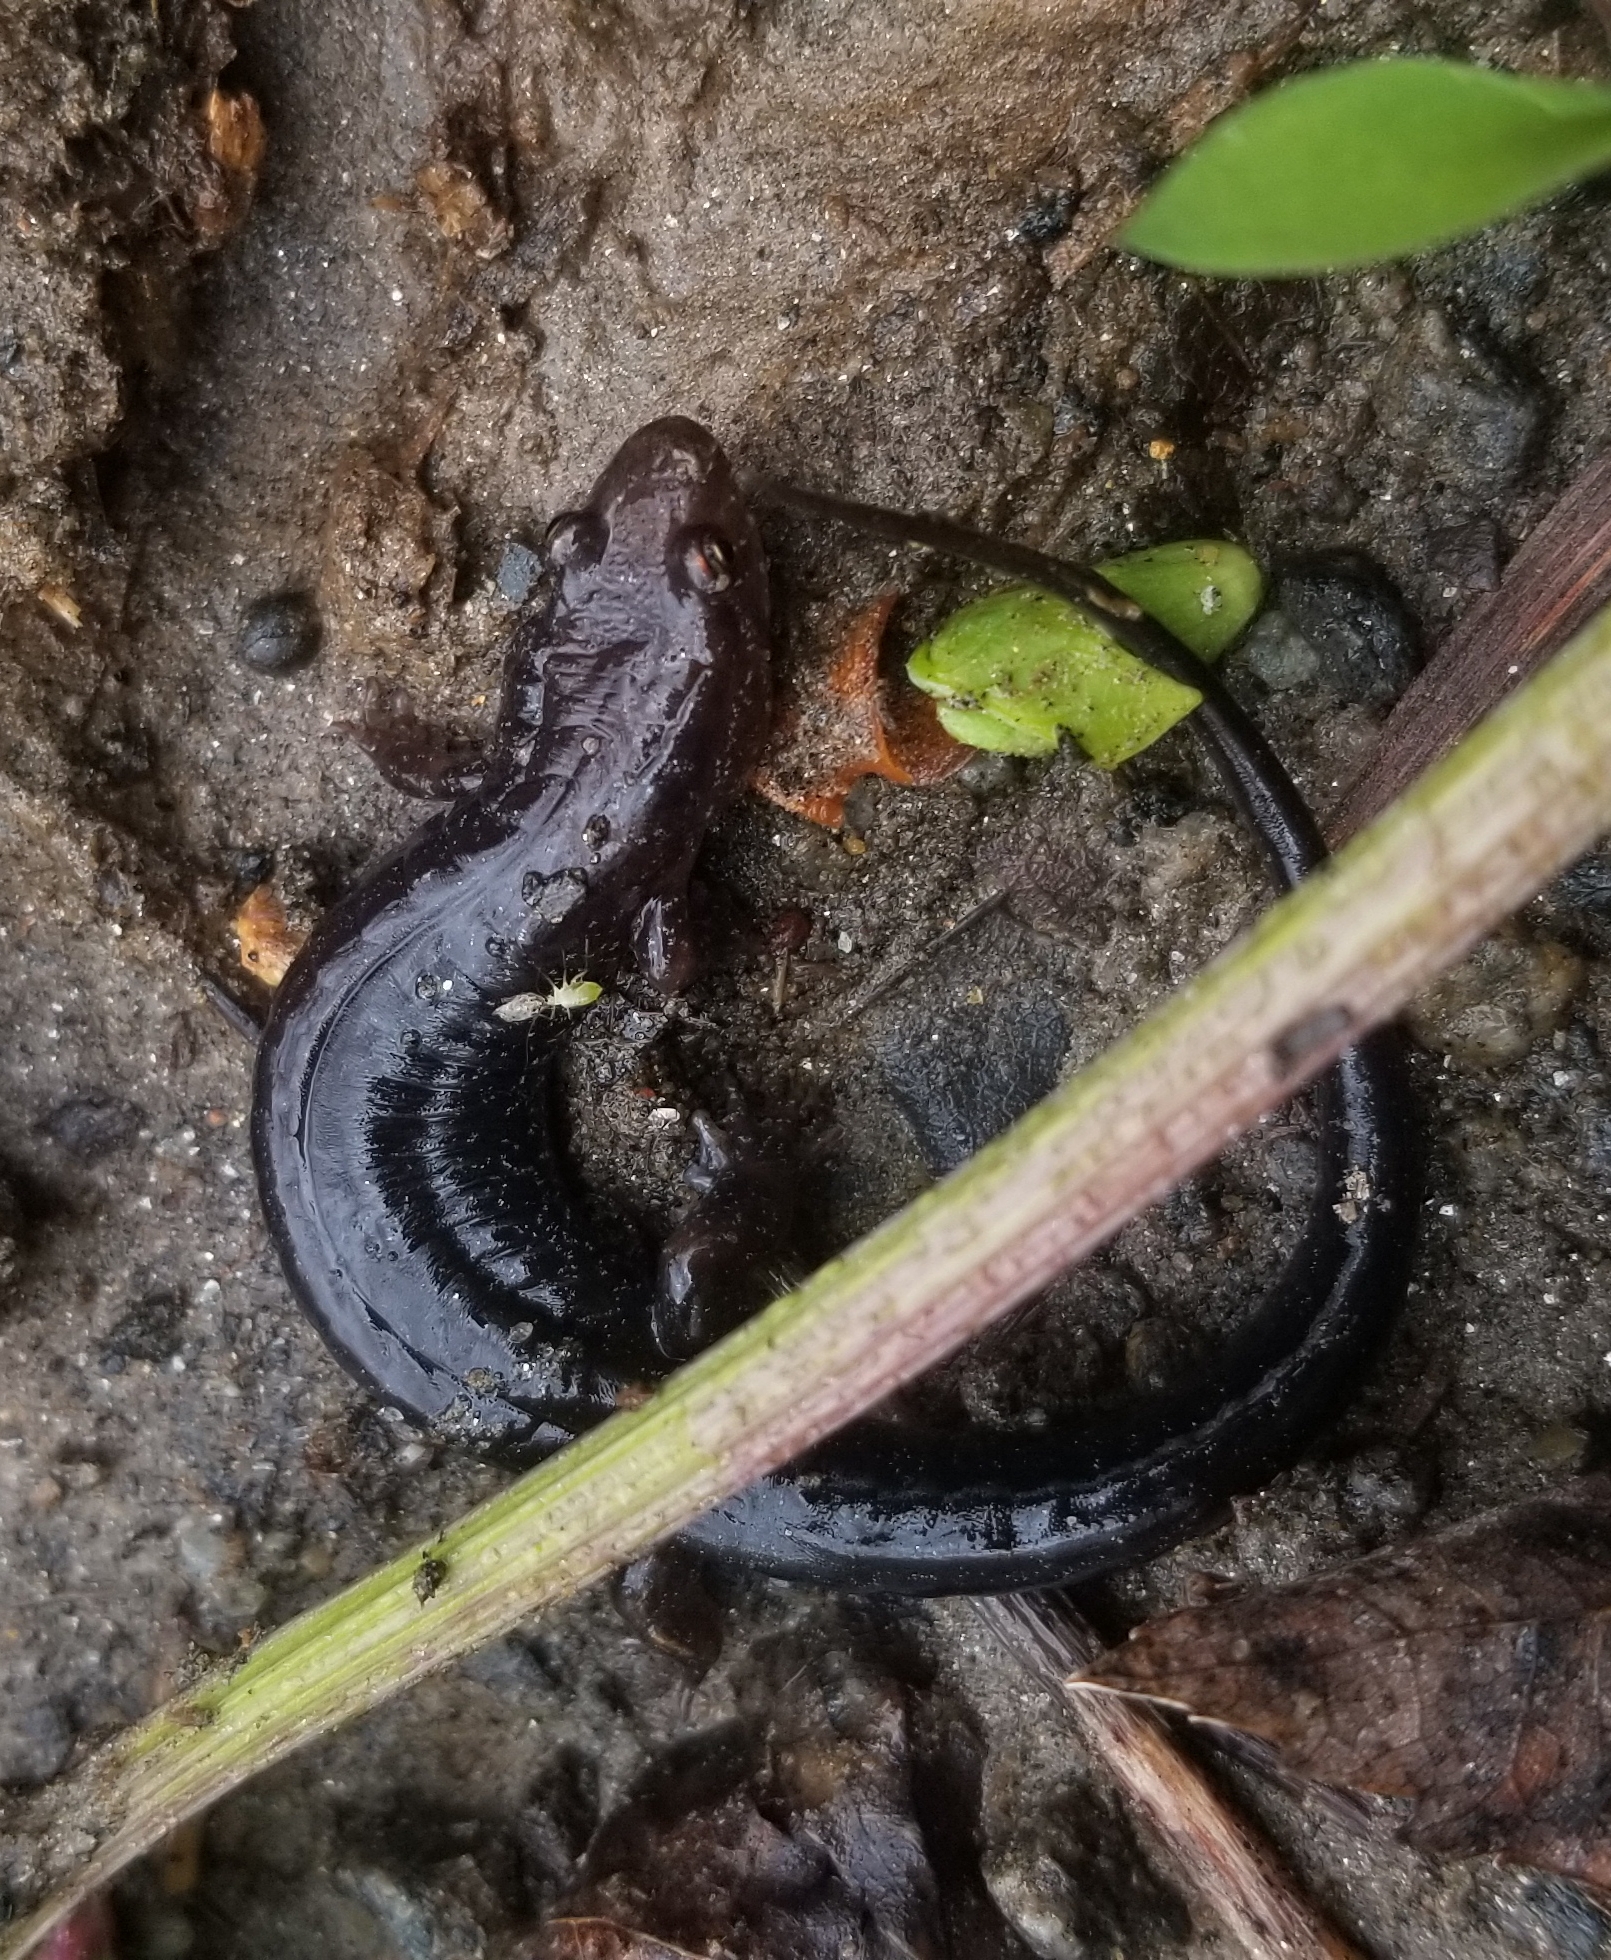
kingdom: Animalia
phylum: Chordata
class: Amphibia
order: Caudata
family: Plethodontidae
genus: Desmognathus
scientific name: Desmognathus carolinensis
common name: Carolina mountain dusky salamander
